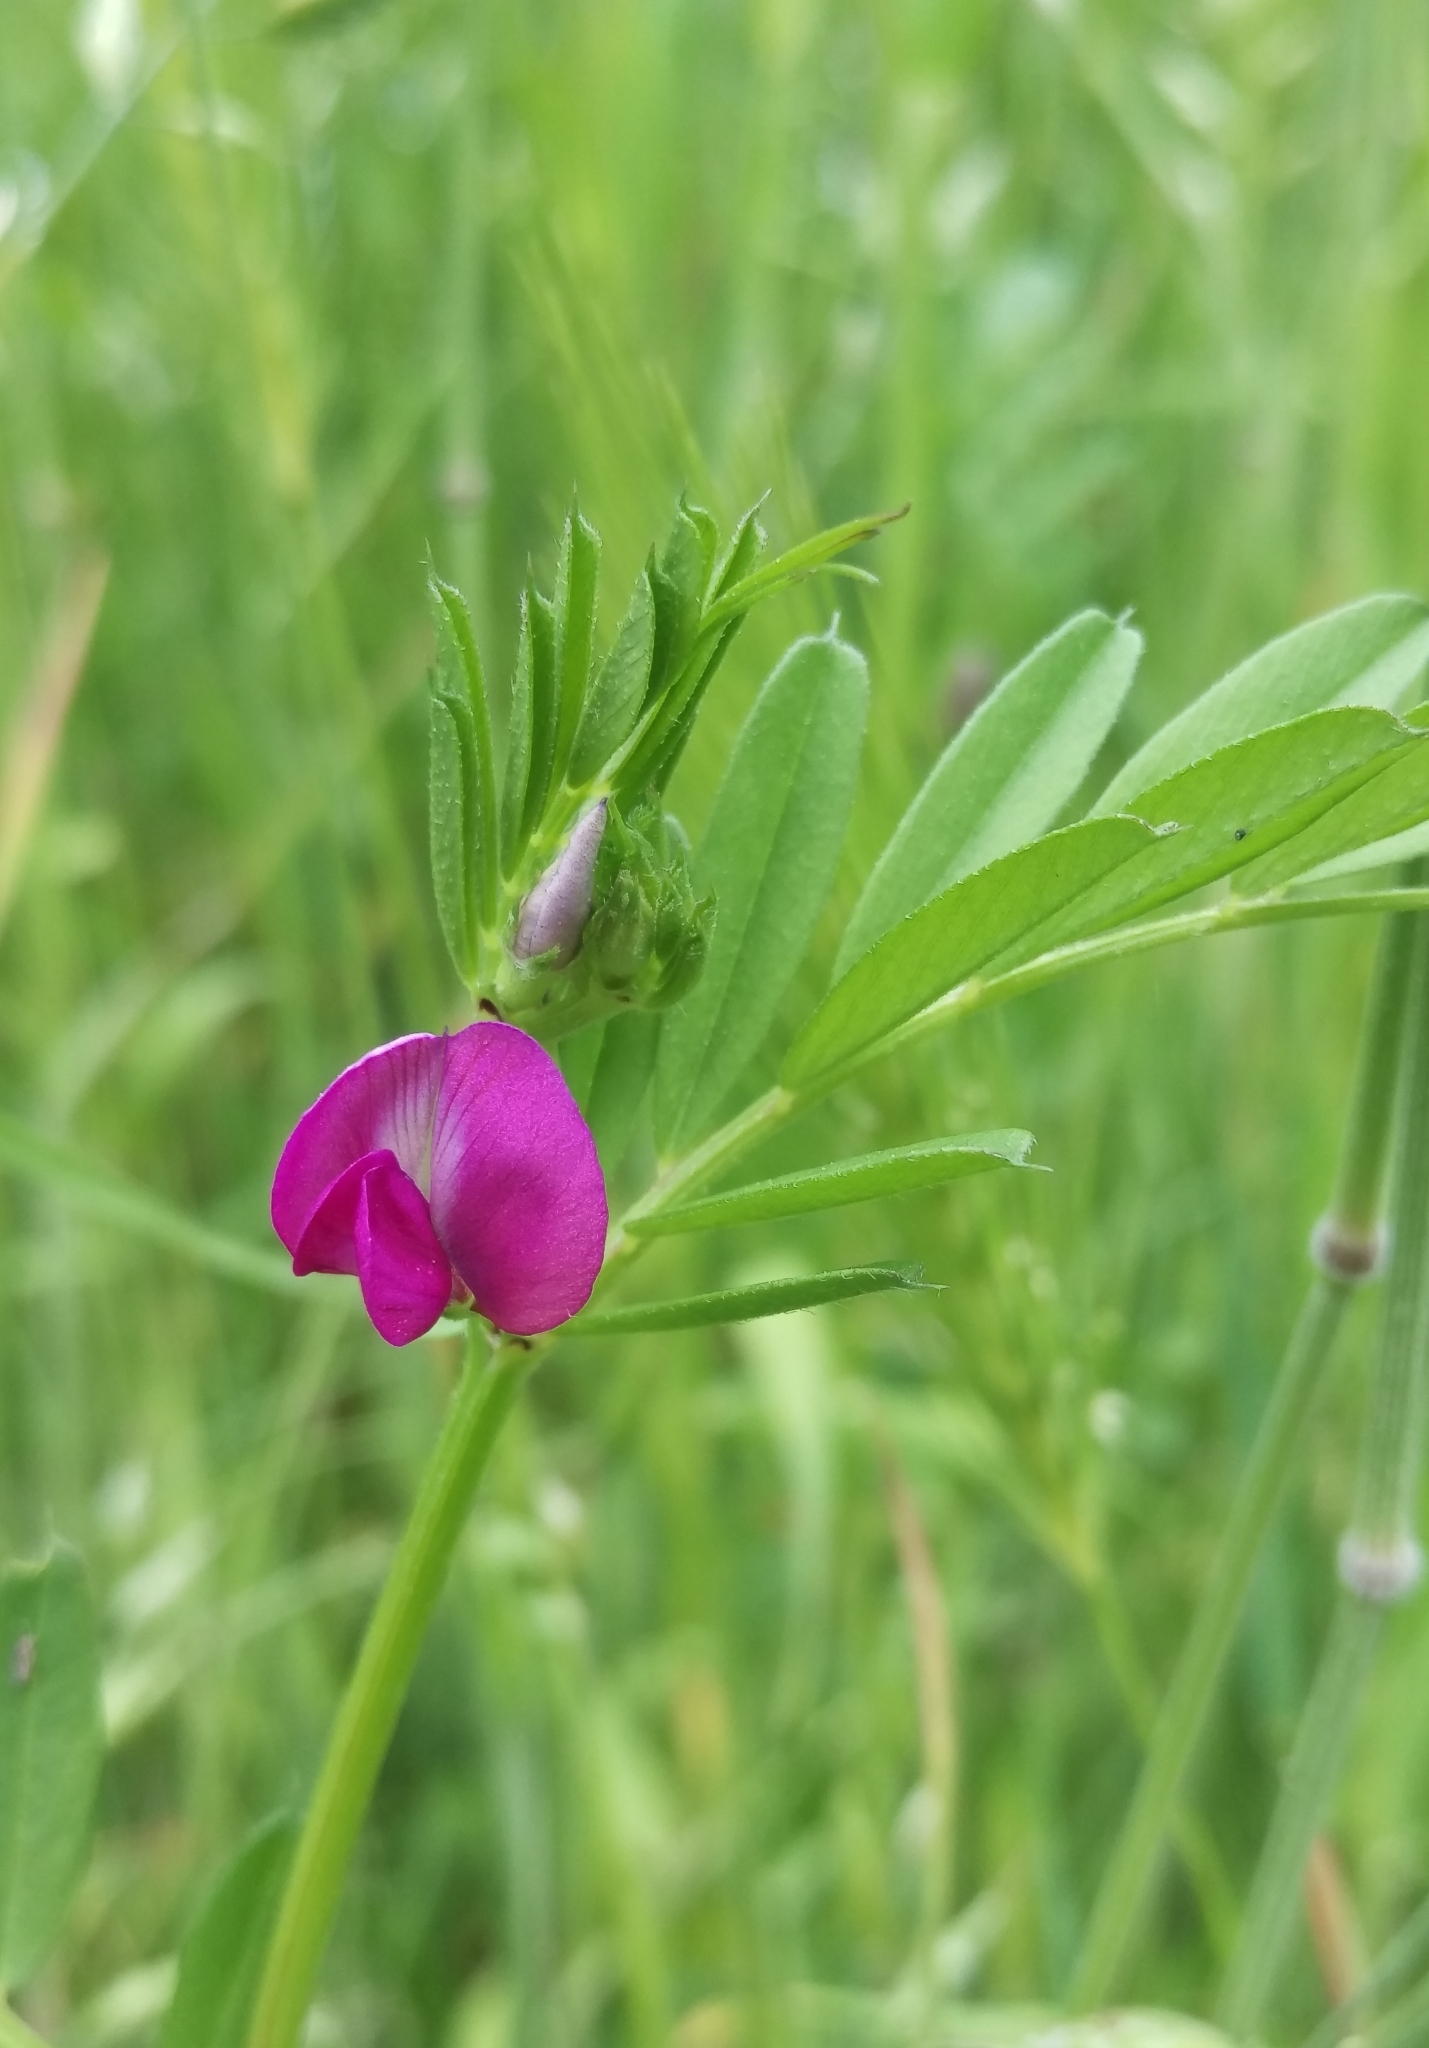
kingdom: Plantae
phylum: Tracheophyta
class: Magnoliopsida
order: Fabales
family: Fabaceae
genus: Vicia
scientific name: Vicia sativa
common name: Garden vetch
